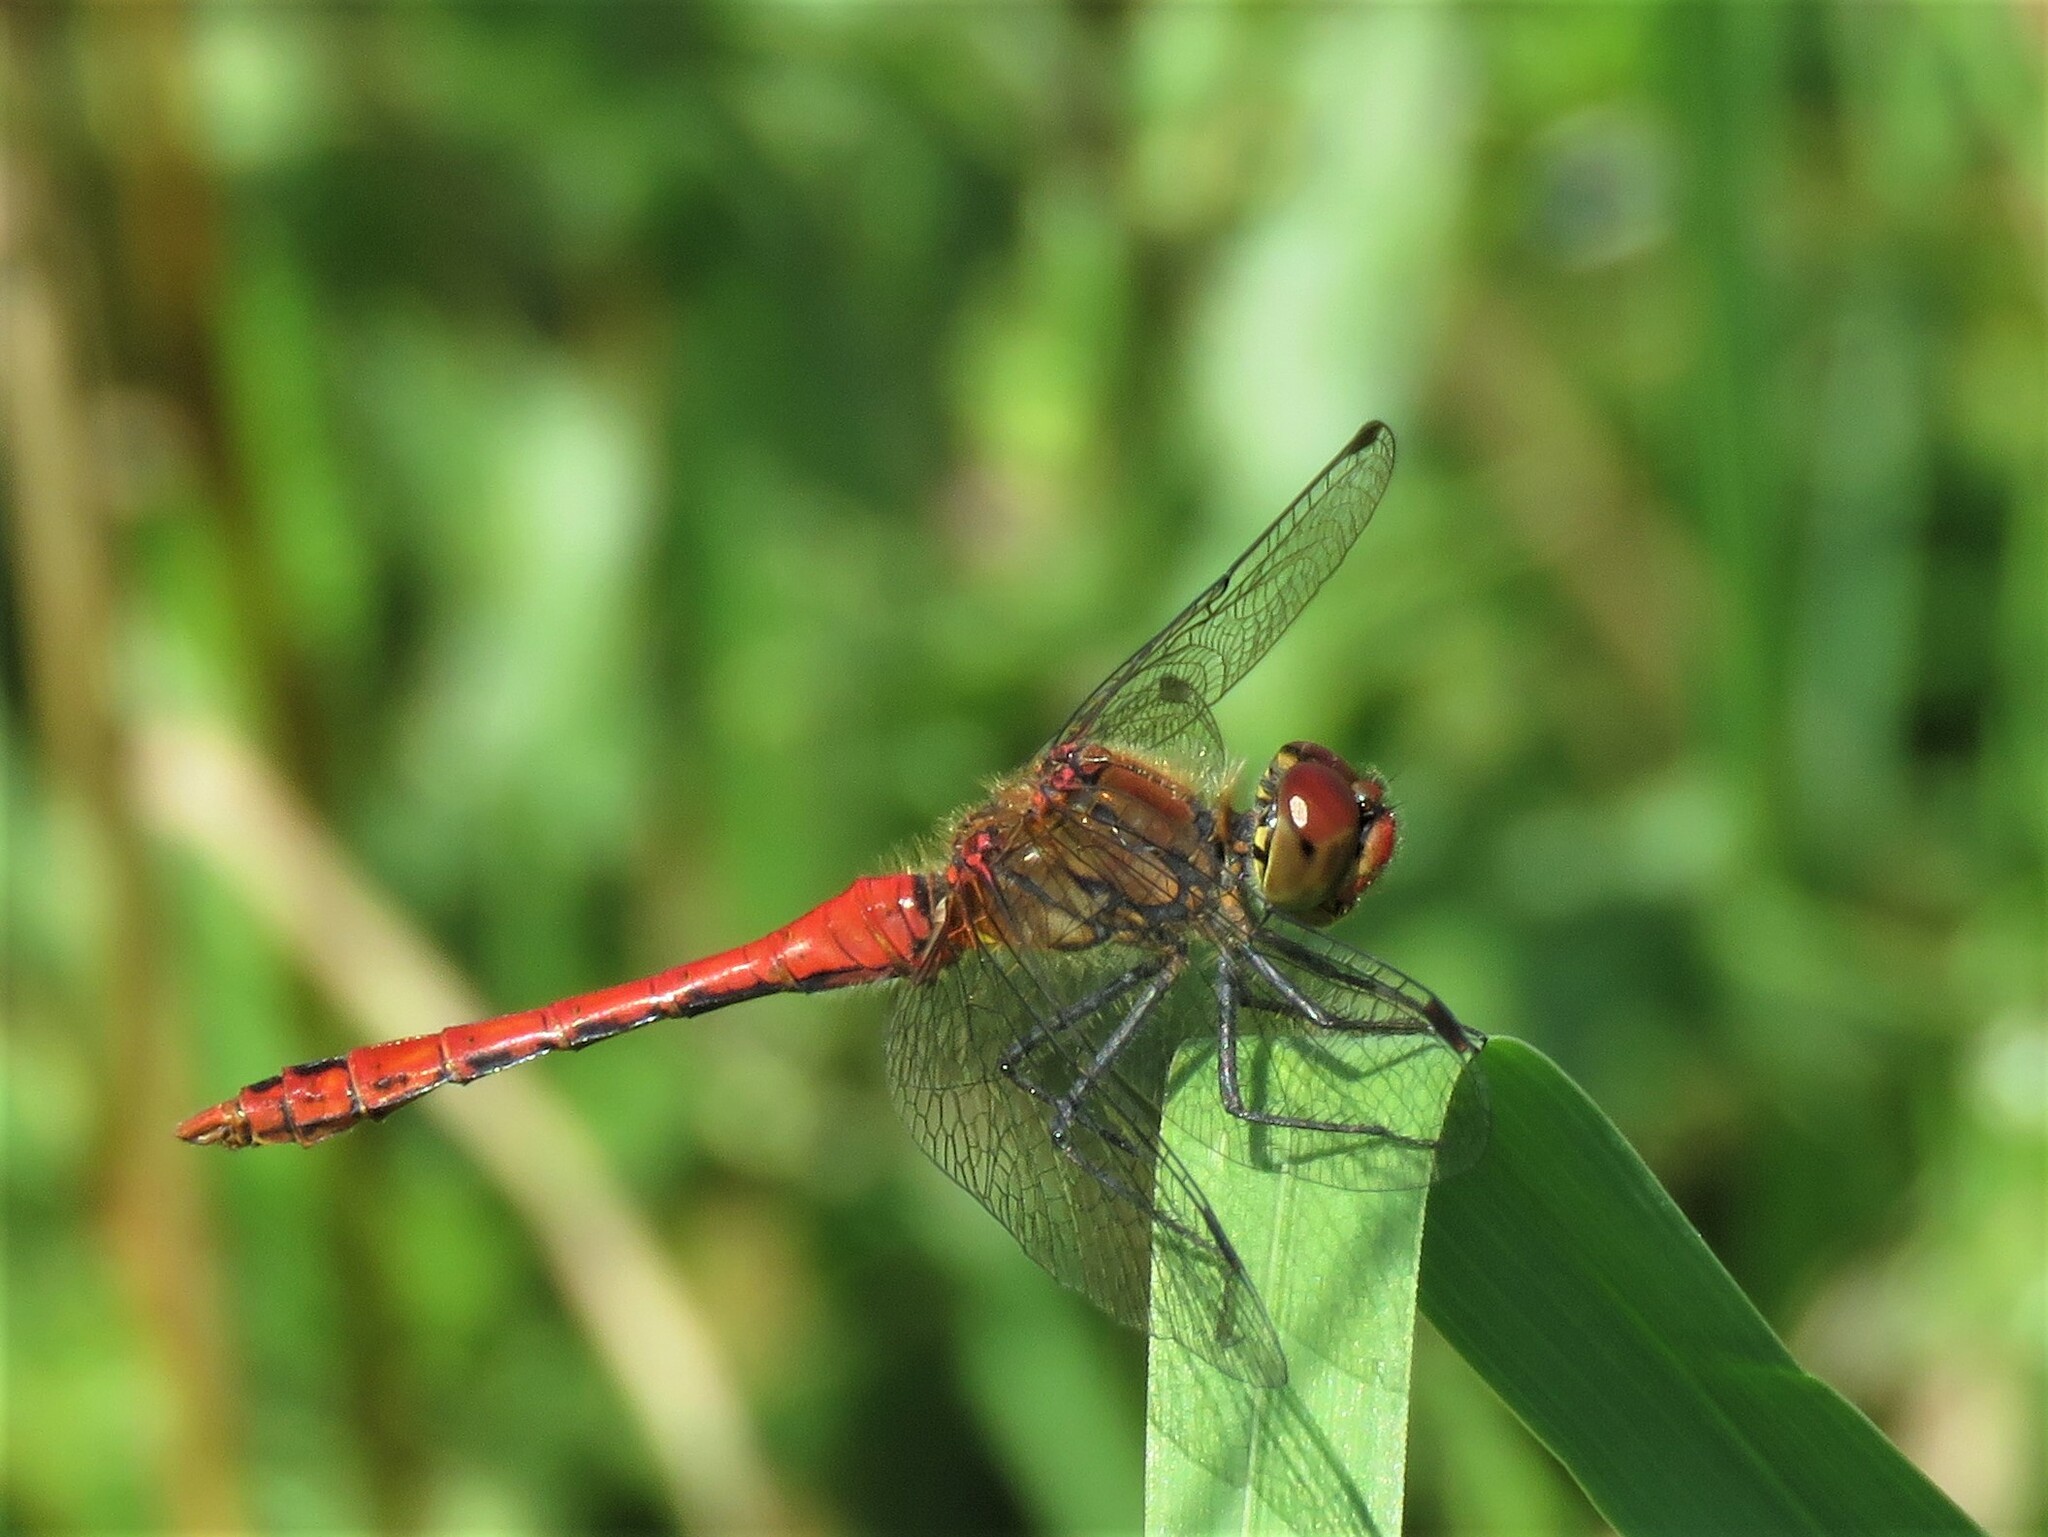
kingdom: Animalia
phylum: Arthropoda
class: Insecta
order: Odonata
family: Libellulidae
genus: Sympetrum
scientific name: Sympetrum sanguineum
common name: Ruddy darter
